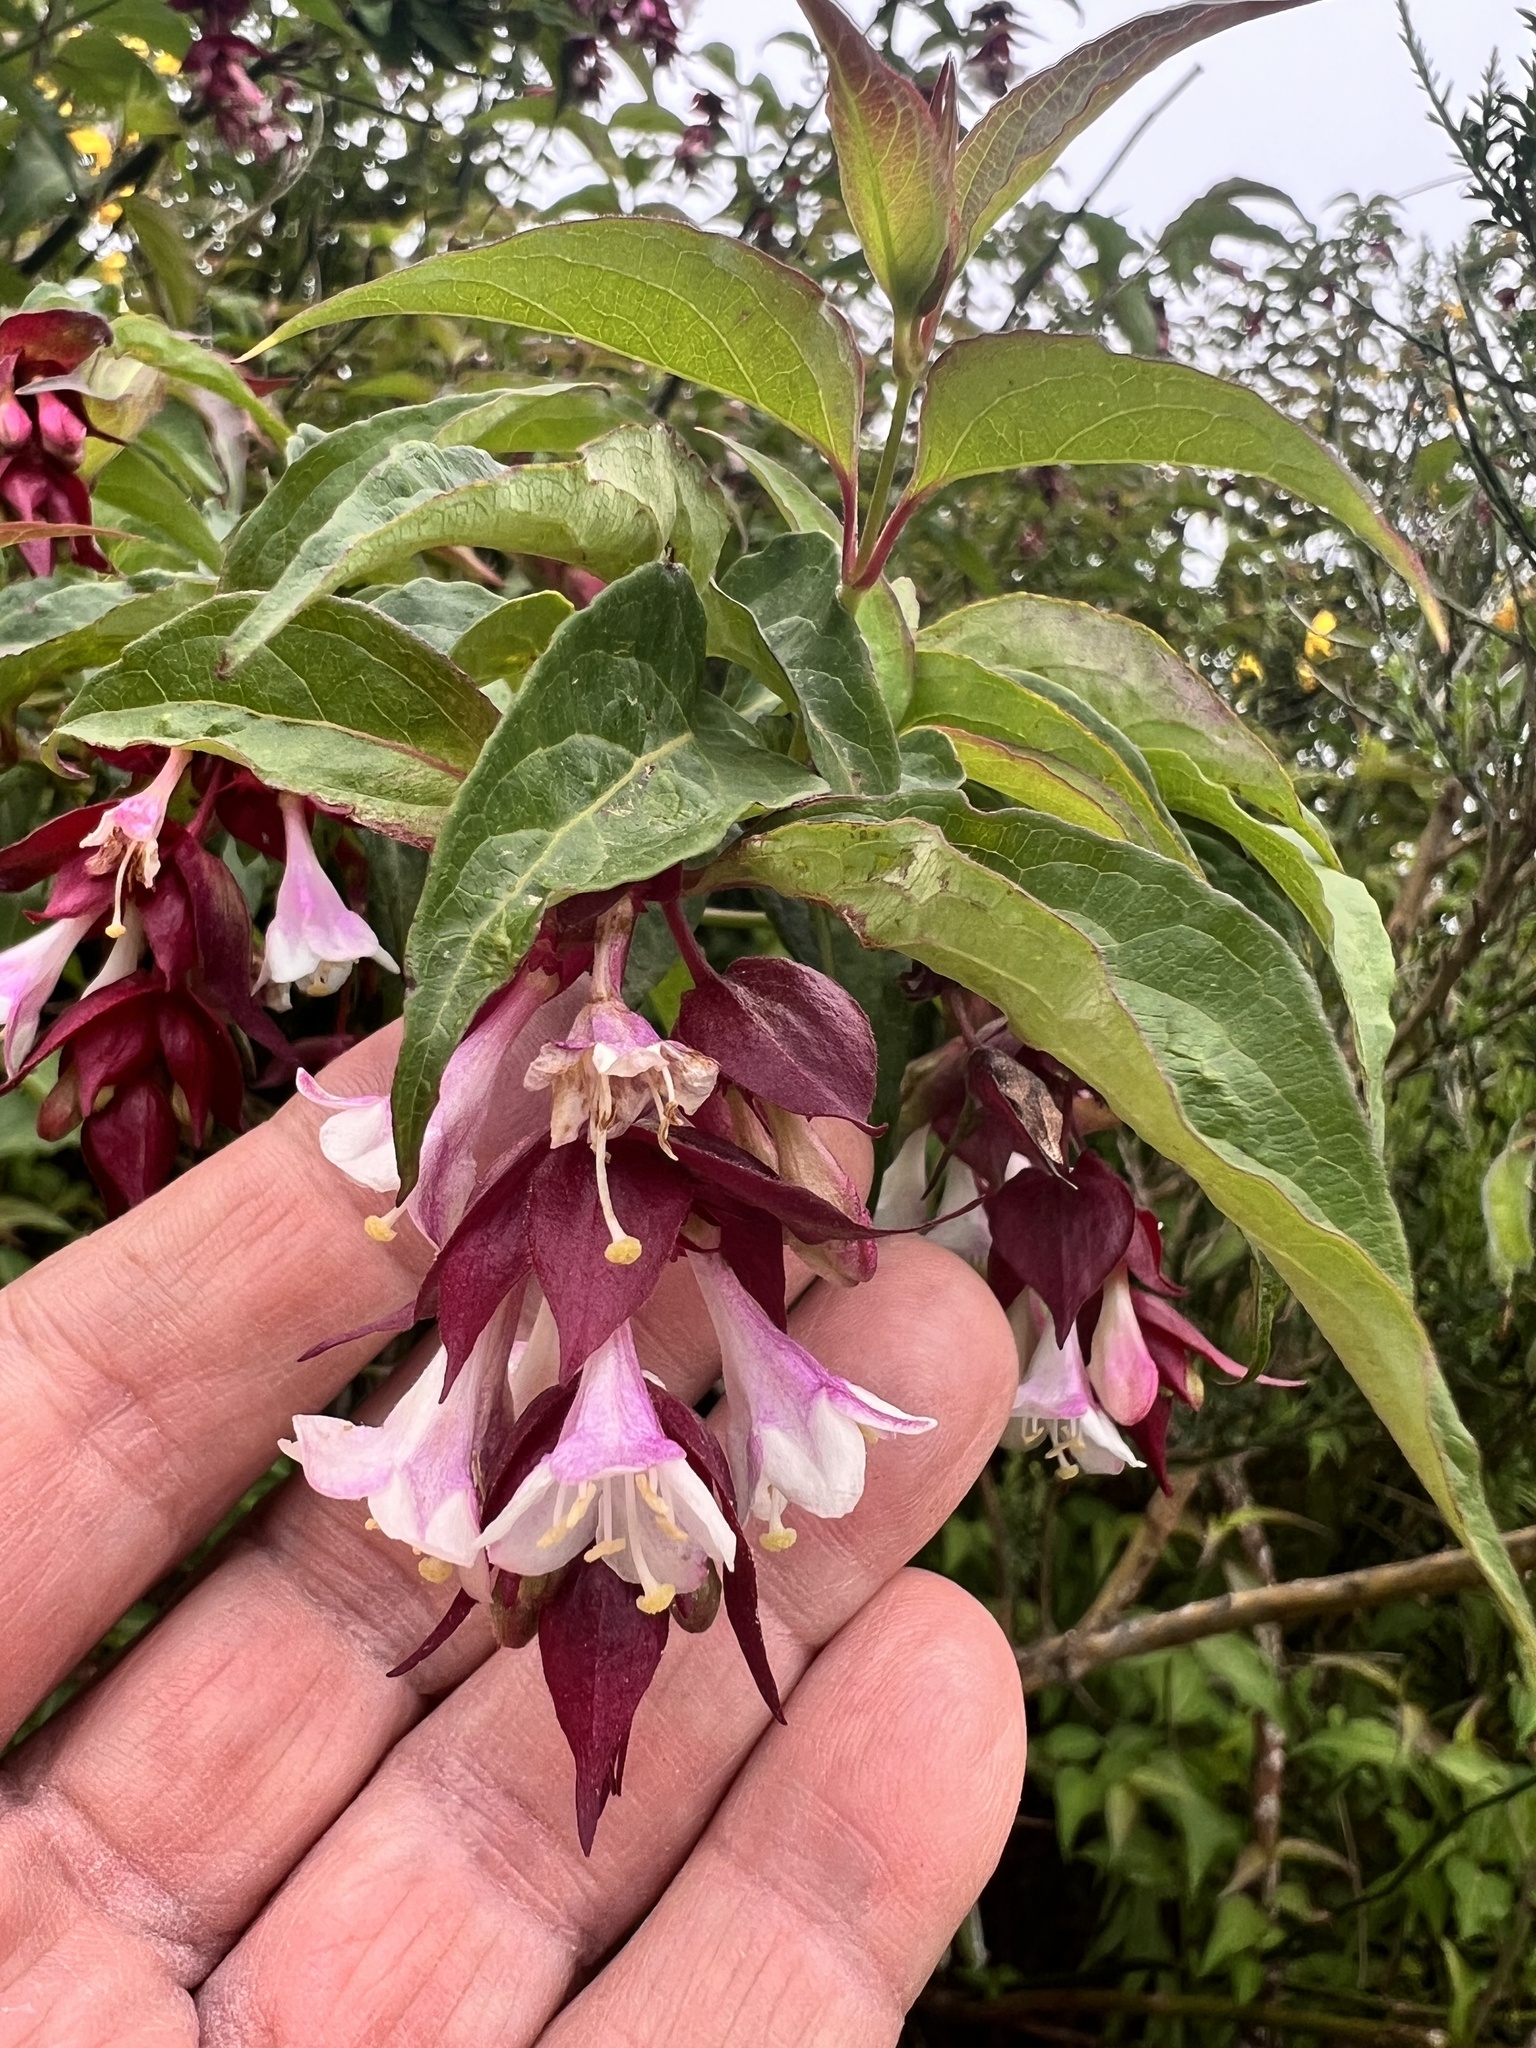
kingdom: Plantae
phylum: Tracheophyta
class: Magnoliopsida
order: Dipsacales
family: Caprifoliaceae
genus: Leycesteria
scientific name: Leycesteria formosa
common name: Himalayan honeysuckle
